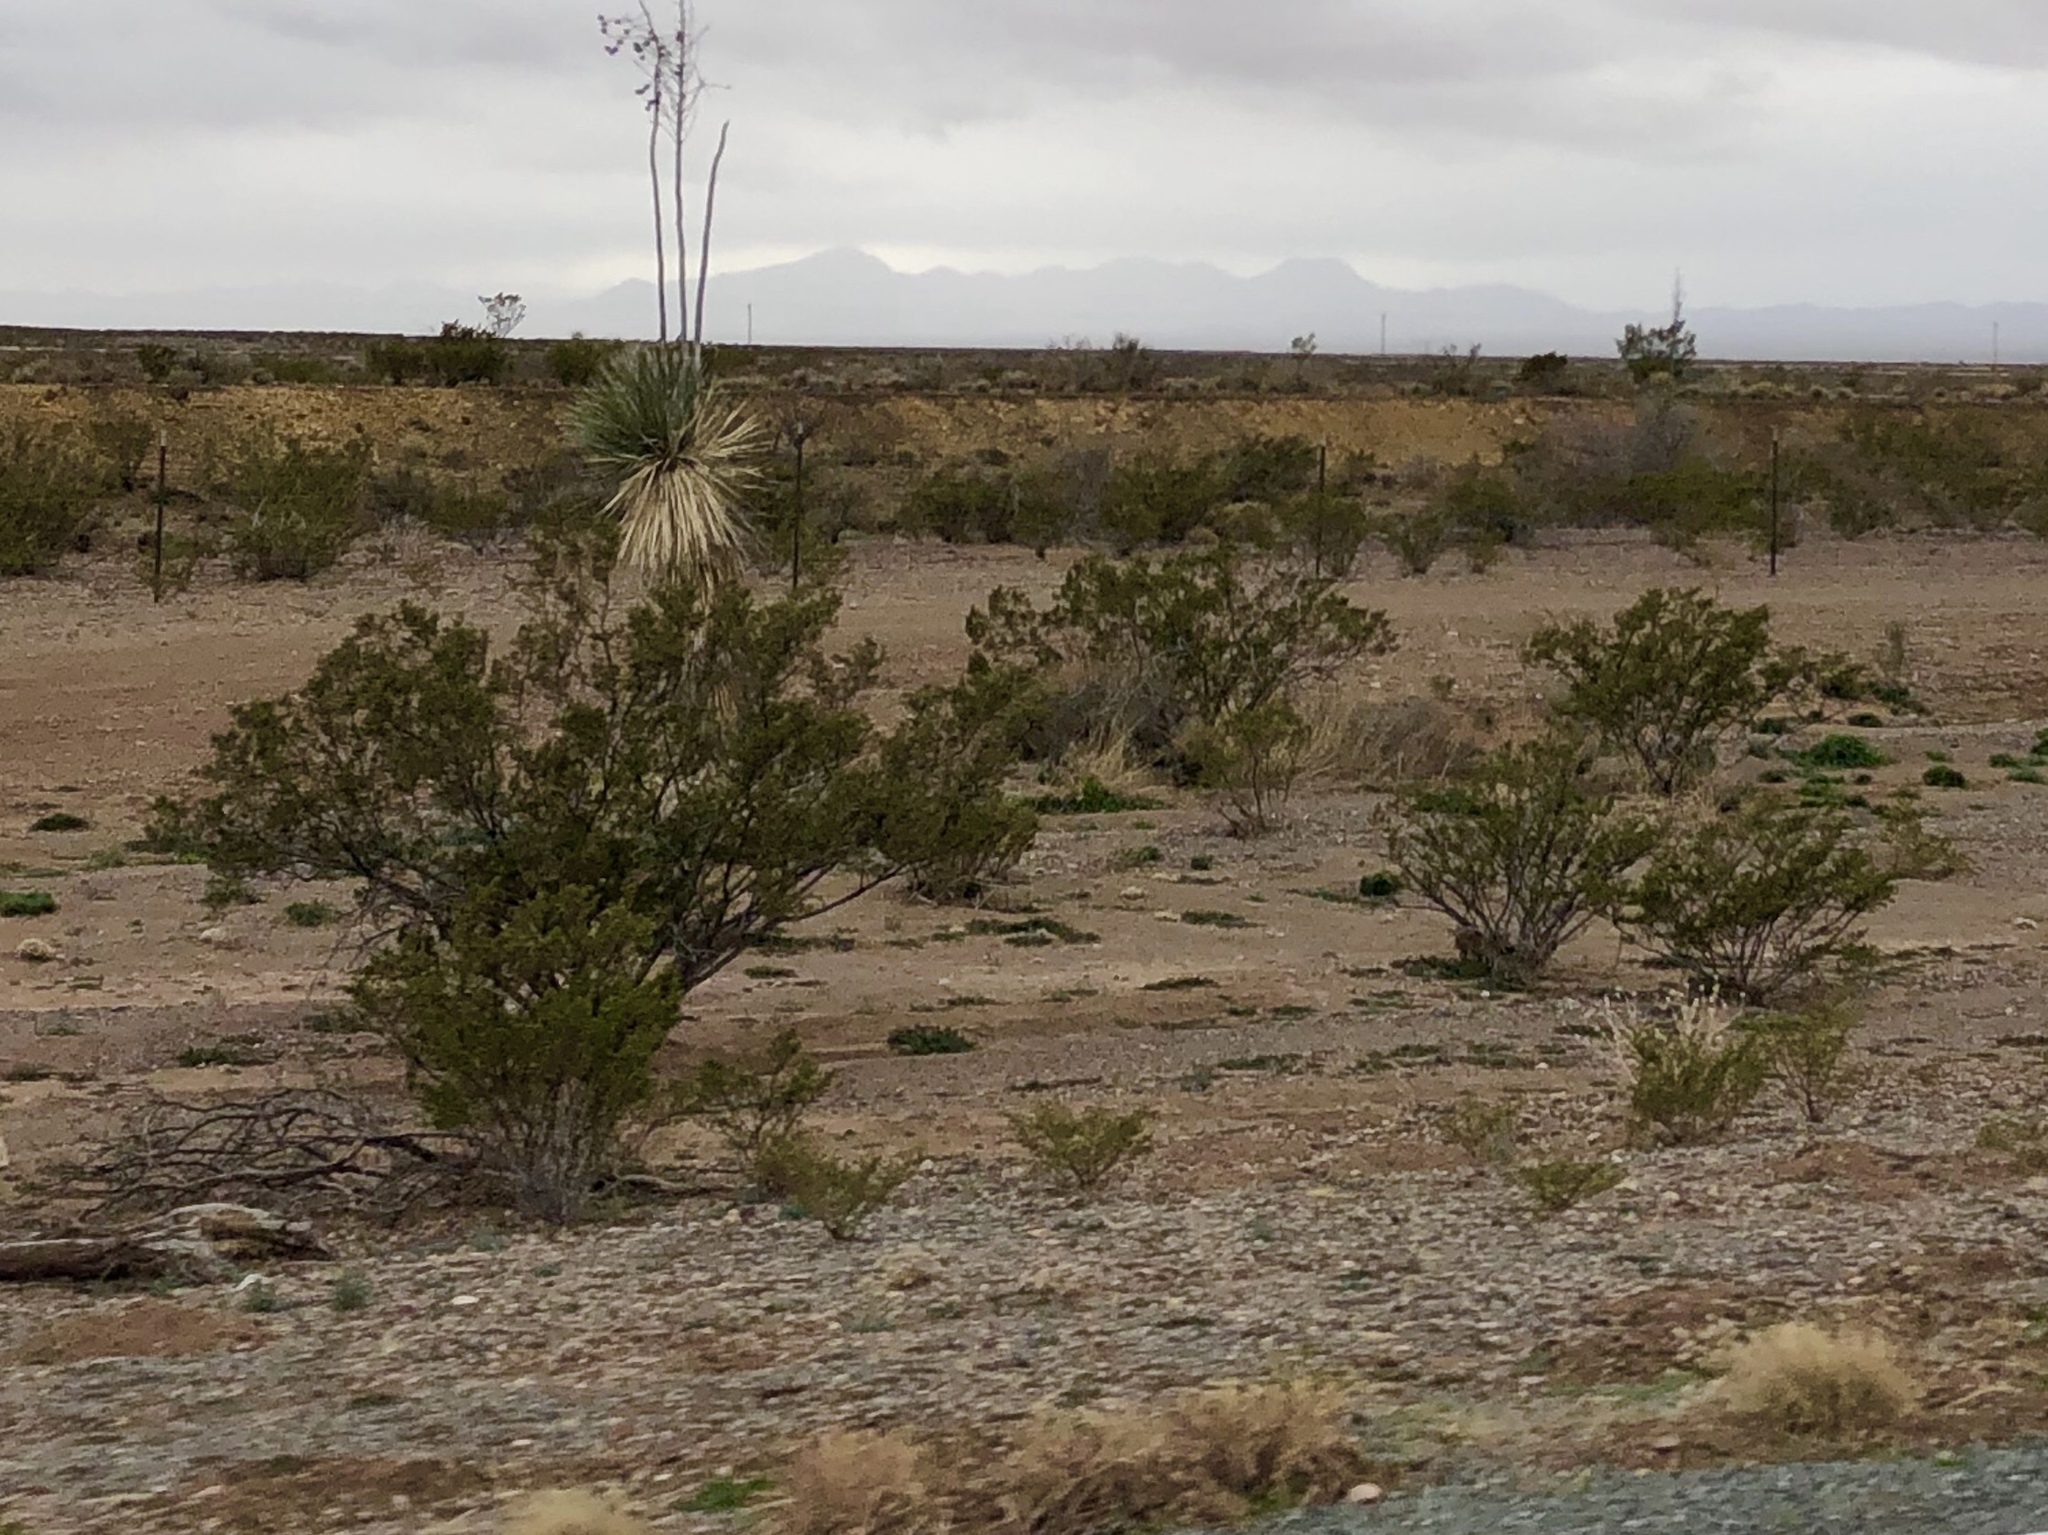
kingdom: Plantae
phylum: Tracheophyta
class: Magnoliopsida
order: Zygophyllales
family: Zygophyllaceae
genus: Larrea
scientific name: Larrea tridentata
